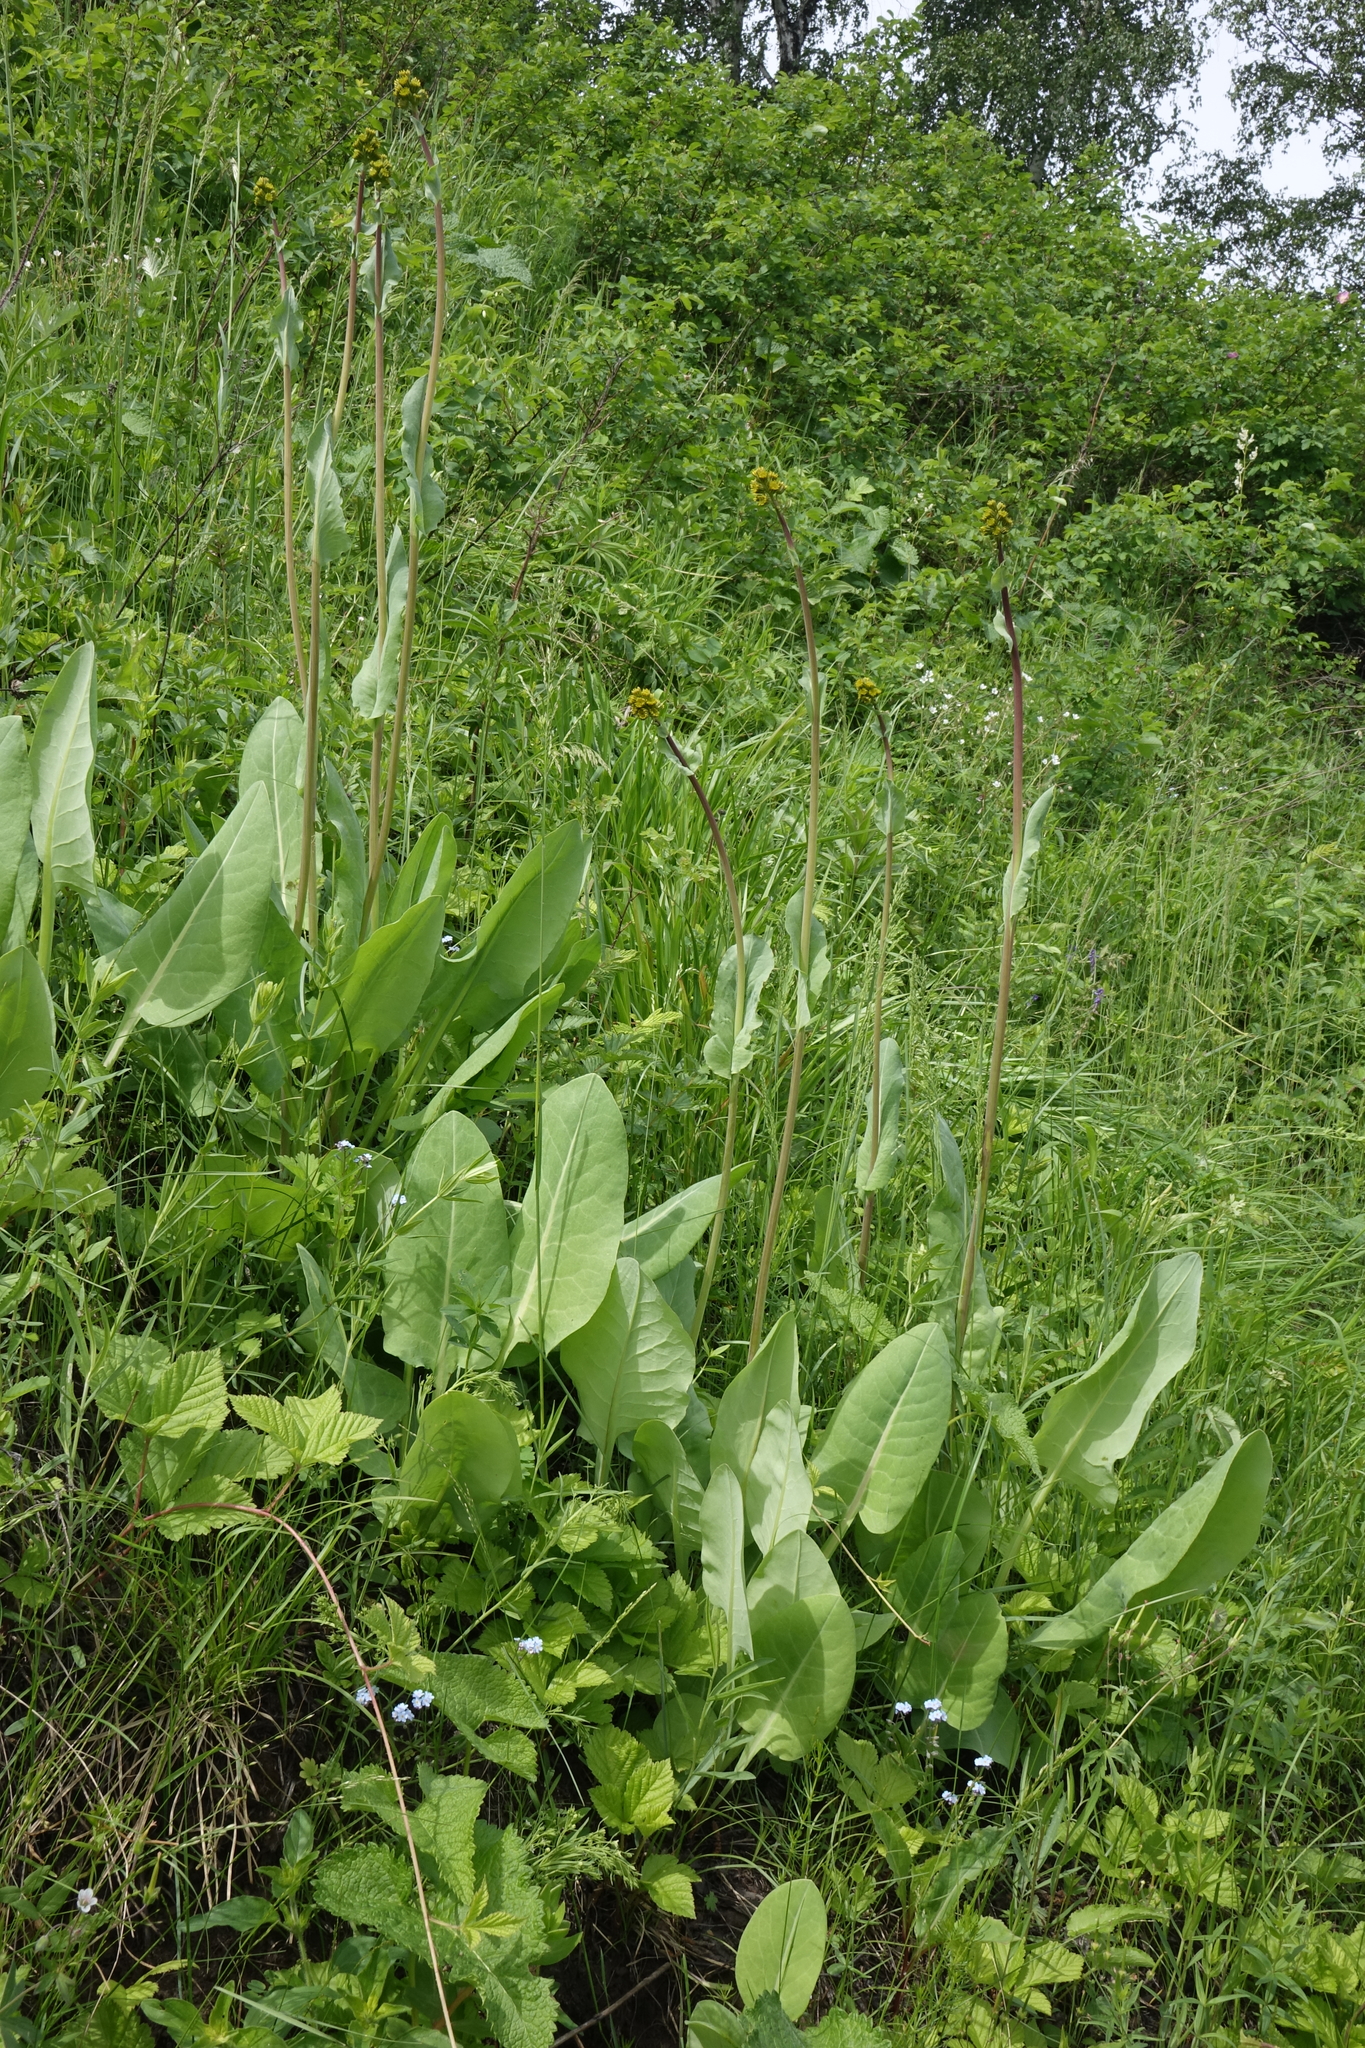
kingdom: Plantae
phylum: Tracheophyta
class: Magnoliopsida
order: Asterales
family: Asteraceae
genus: Ligularia
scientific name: Ligularia glauca
